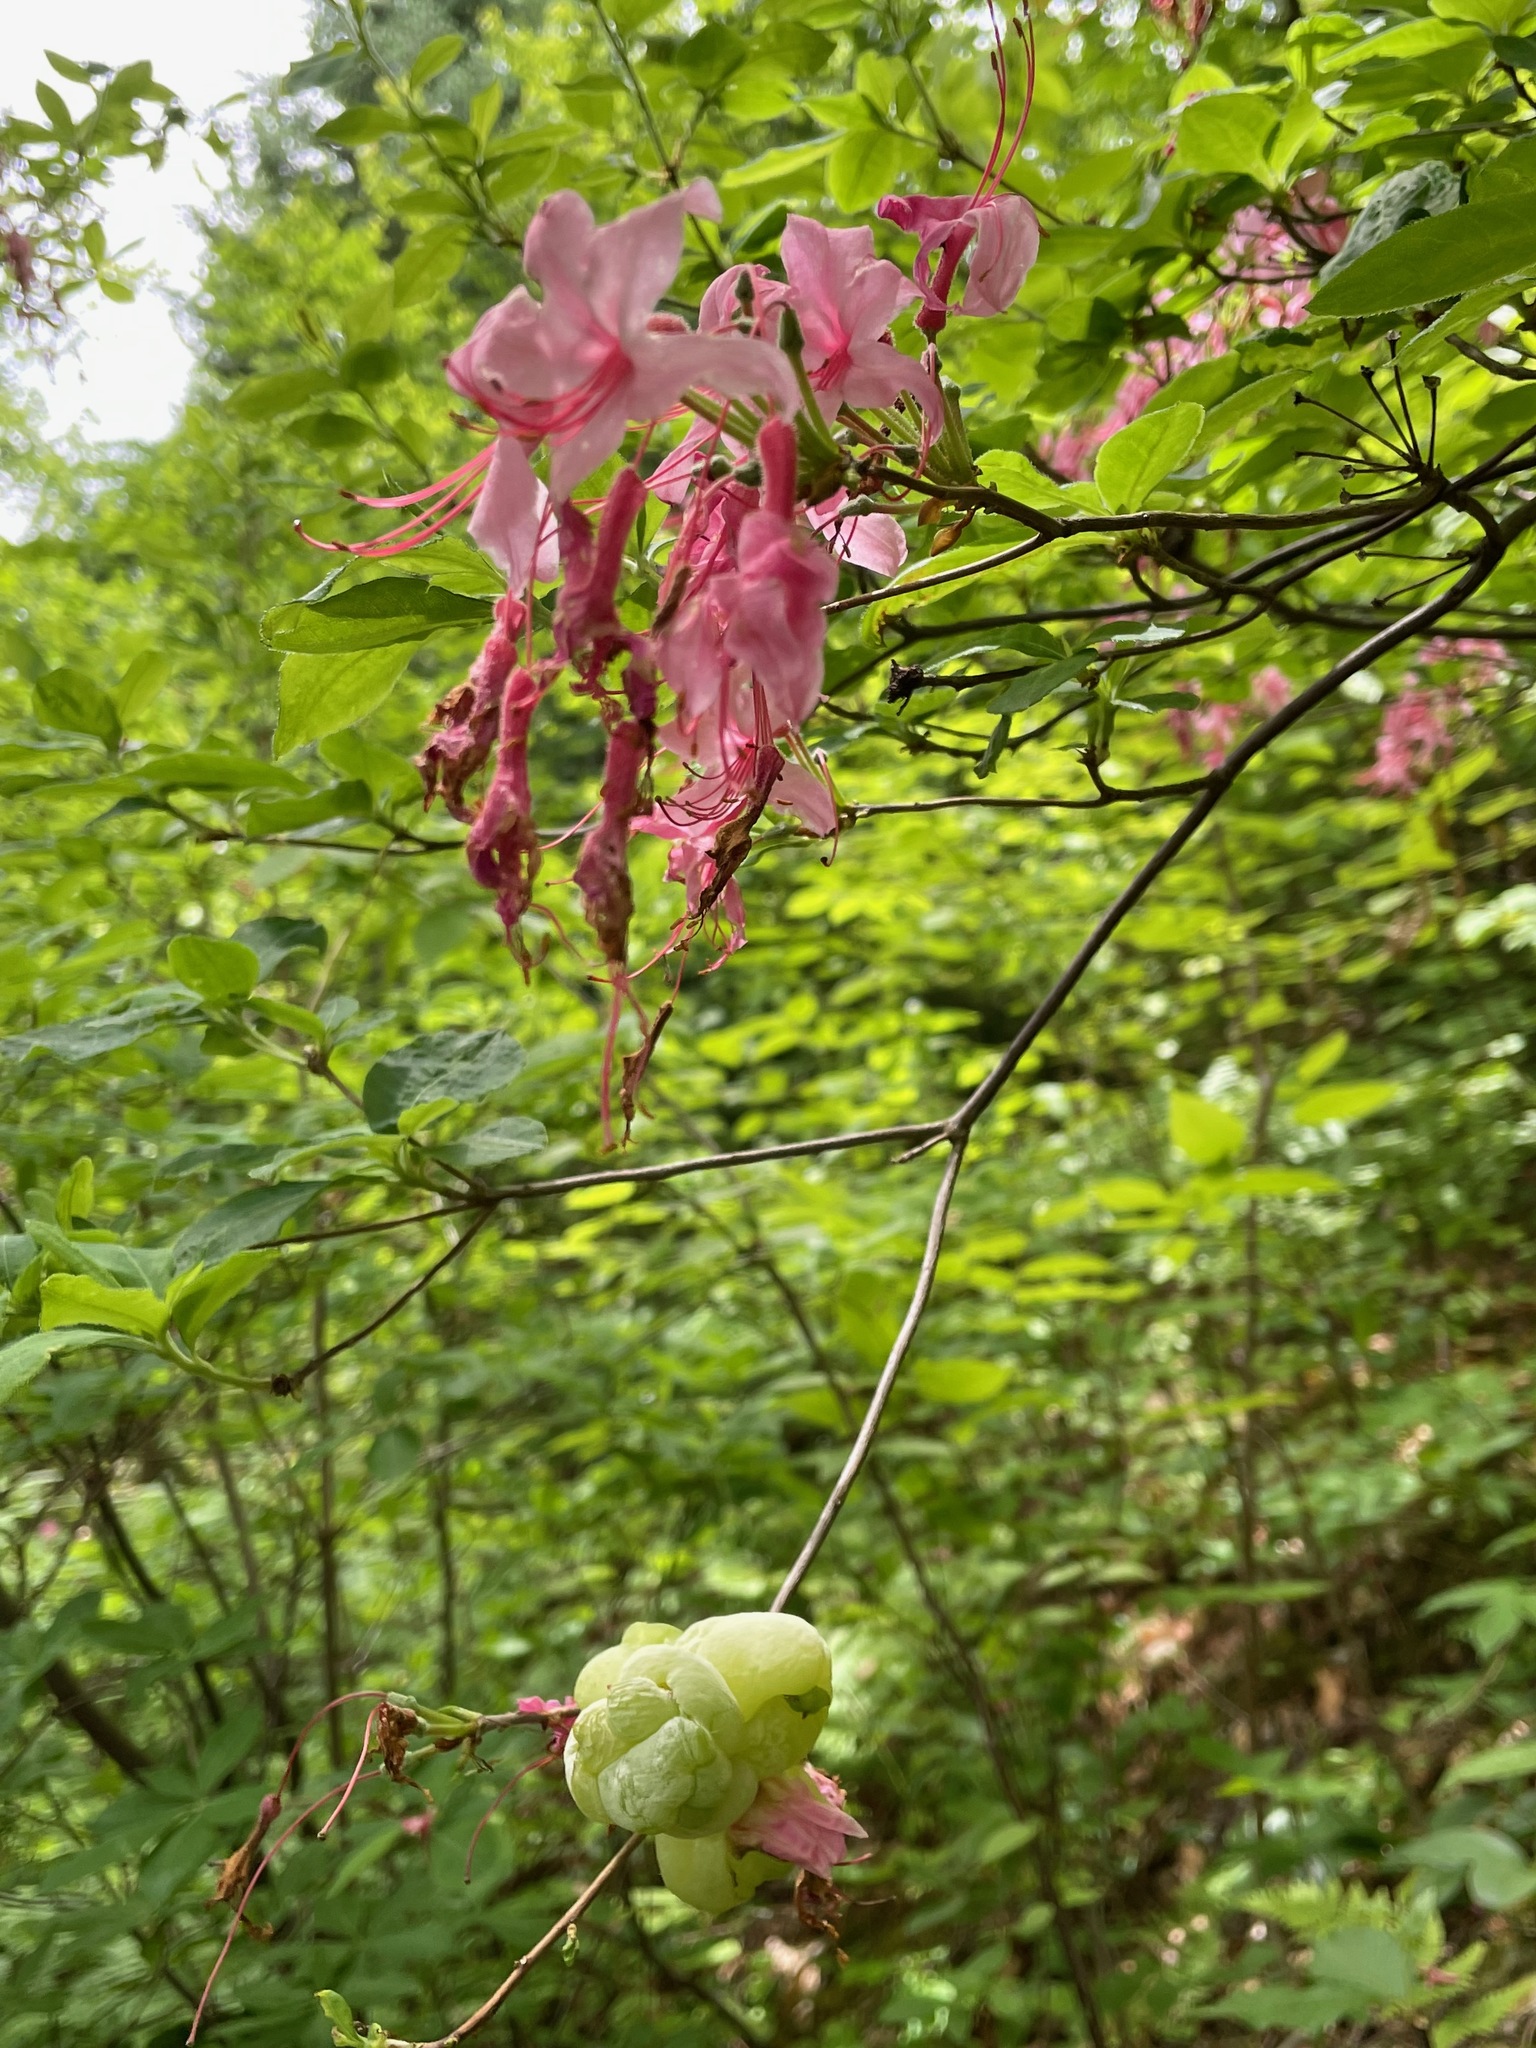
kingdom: Fungi
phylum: Basidiomycota
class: Exobasidiomycetes
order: Exobasidiales
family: Exobasidiaceae
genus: Exobasidium
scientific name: Exobasidium vaccinii
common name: Cowberry redleaf
